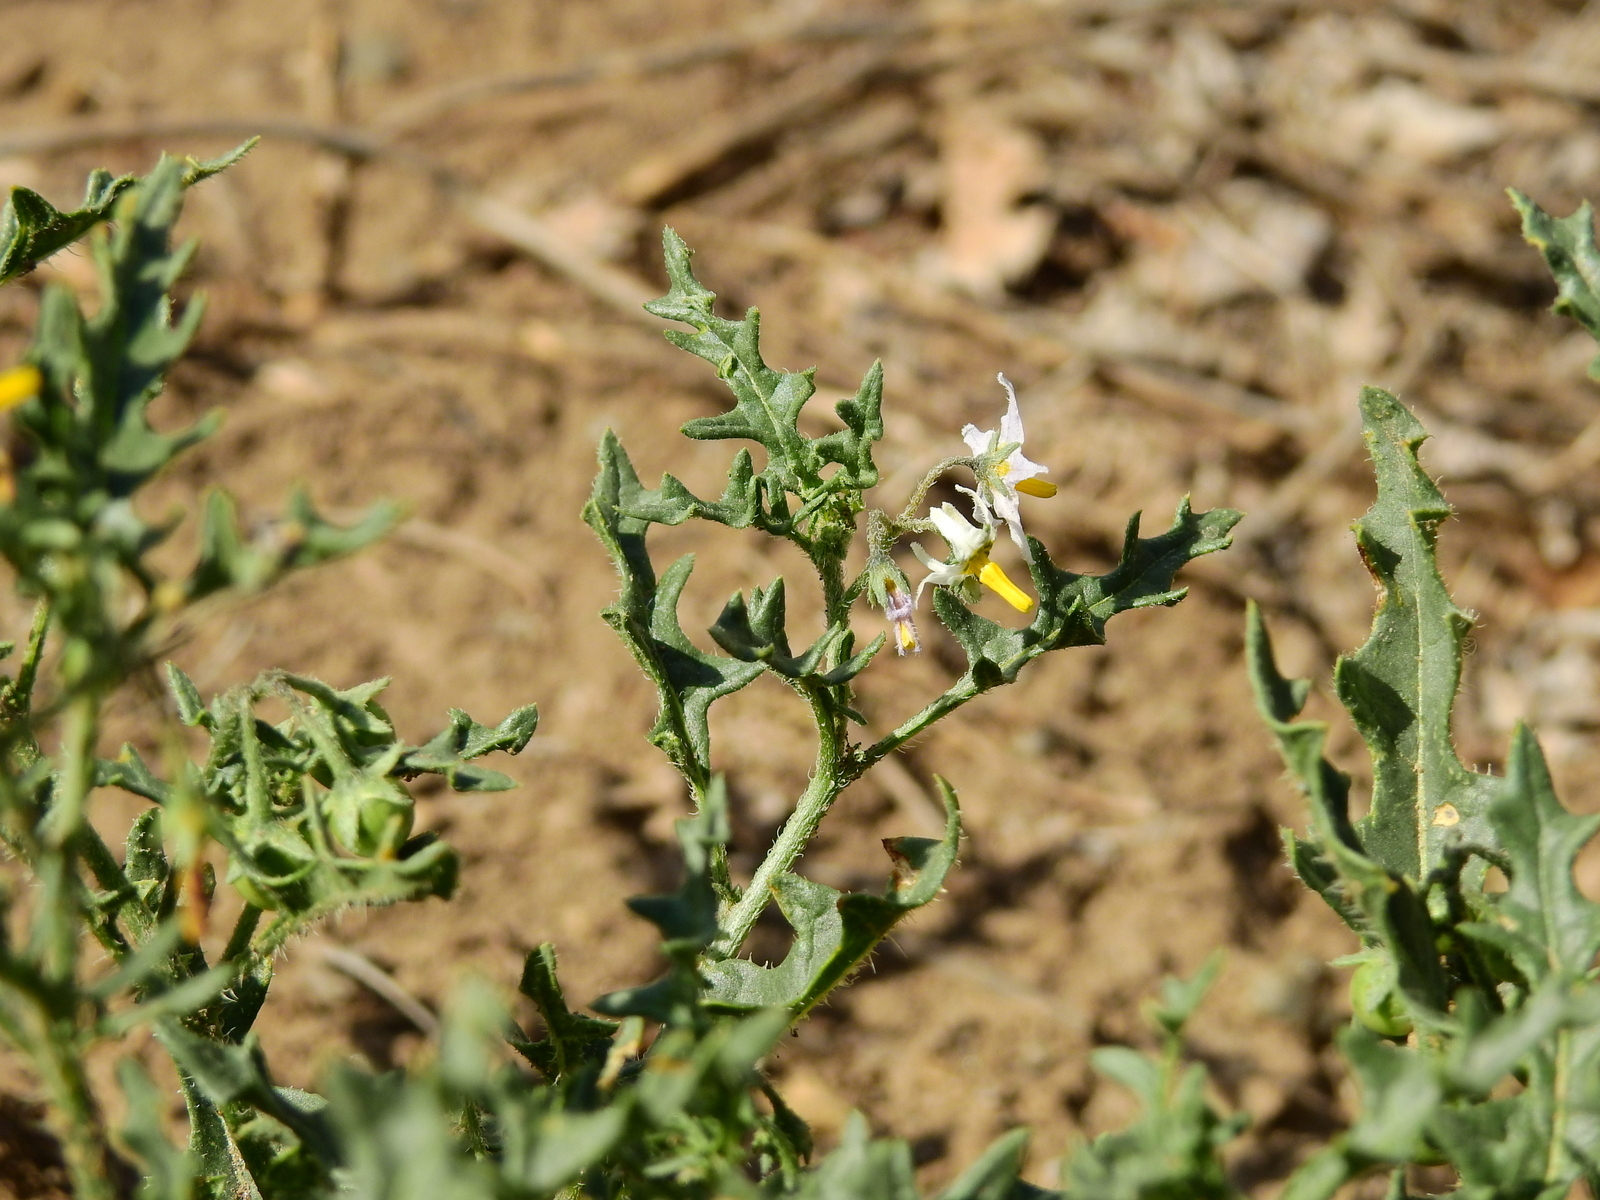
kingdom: Plantae
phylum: Tracheophyta
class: Magnoliopsida
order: Solanales
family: Solanaceae
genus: Solanum
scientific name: Solanum triflorum
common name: Small nightshade
